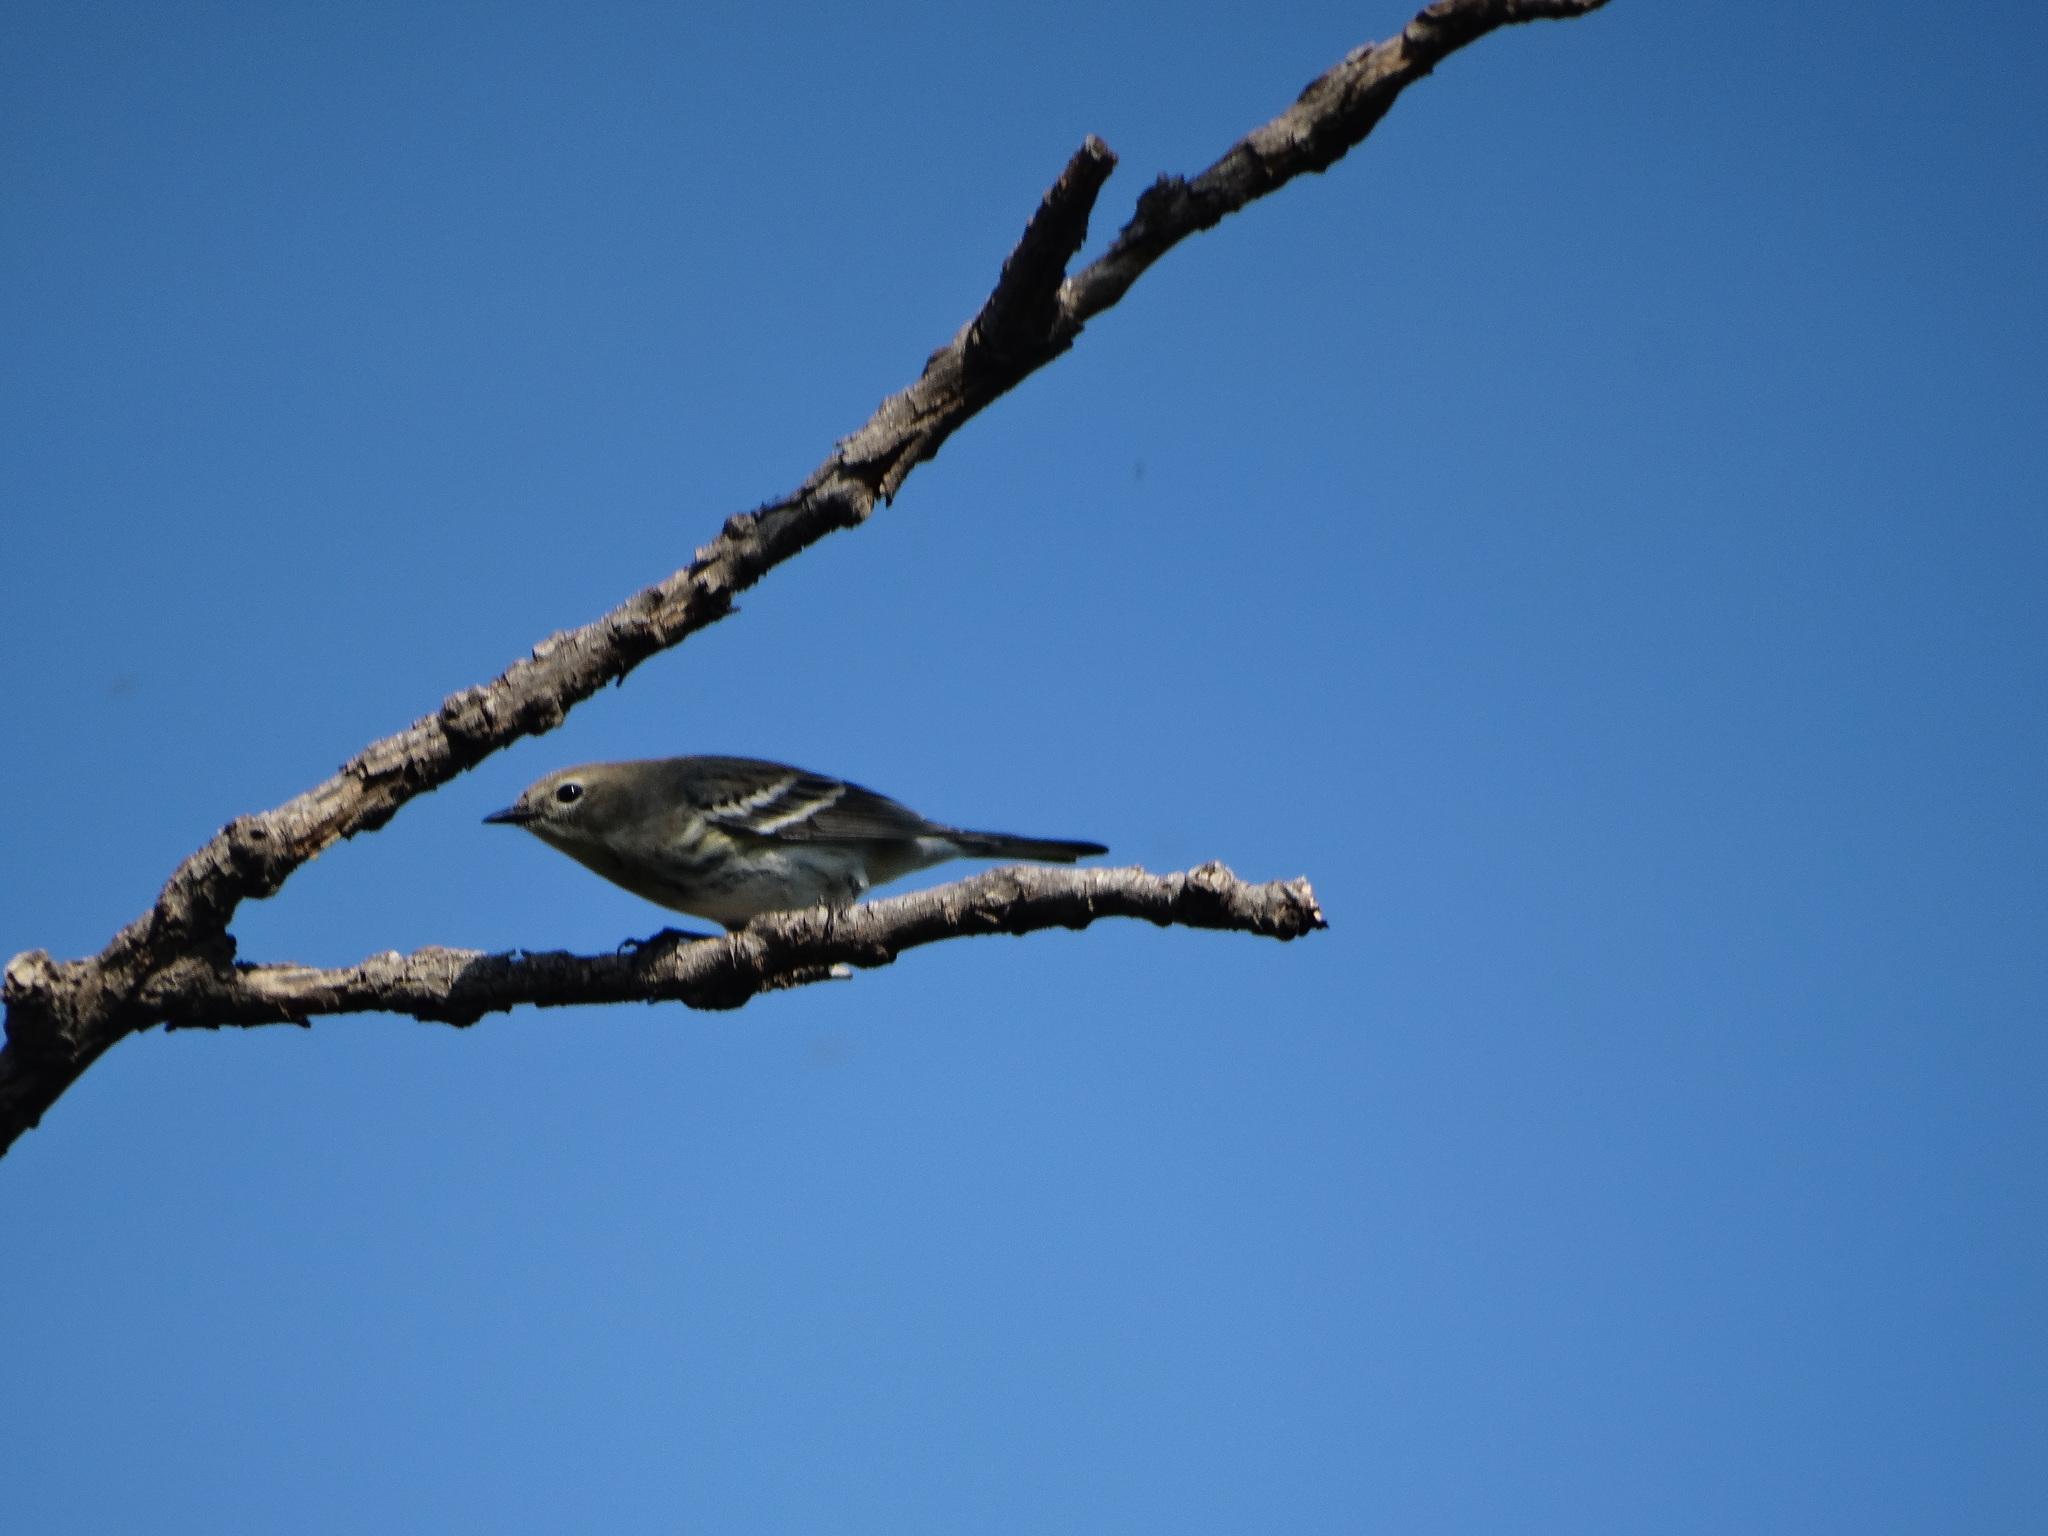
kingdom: Animalia
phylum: Chordata
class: Aves
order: Passeriformes
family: Parulidae
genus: Setophaga
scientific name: Setophaga coronata
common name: Myrtle warbler
